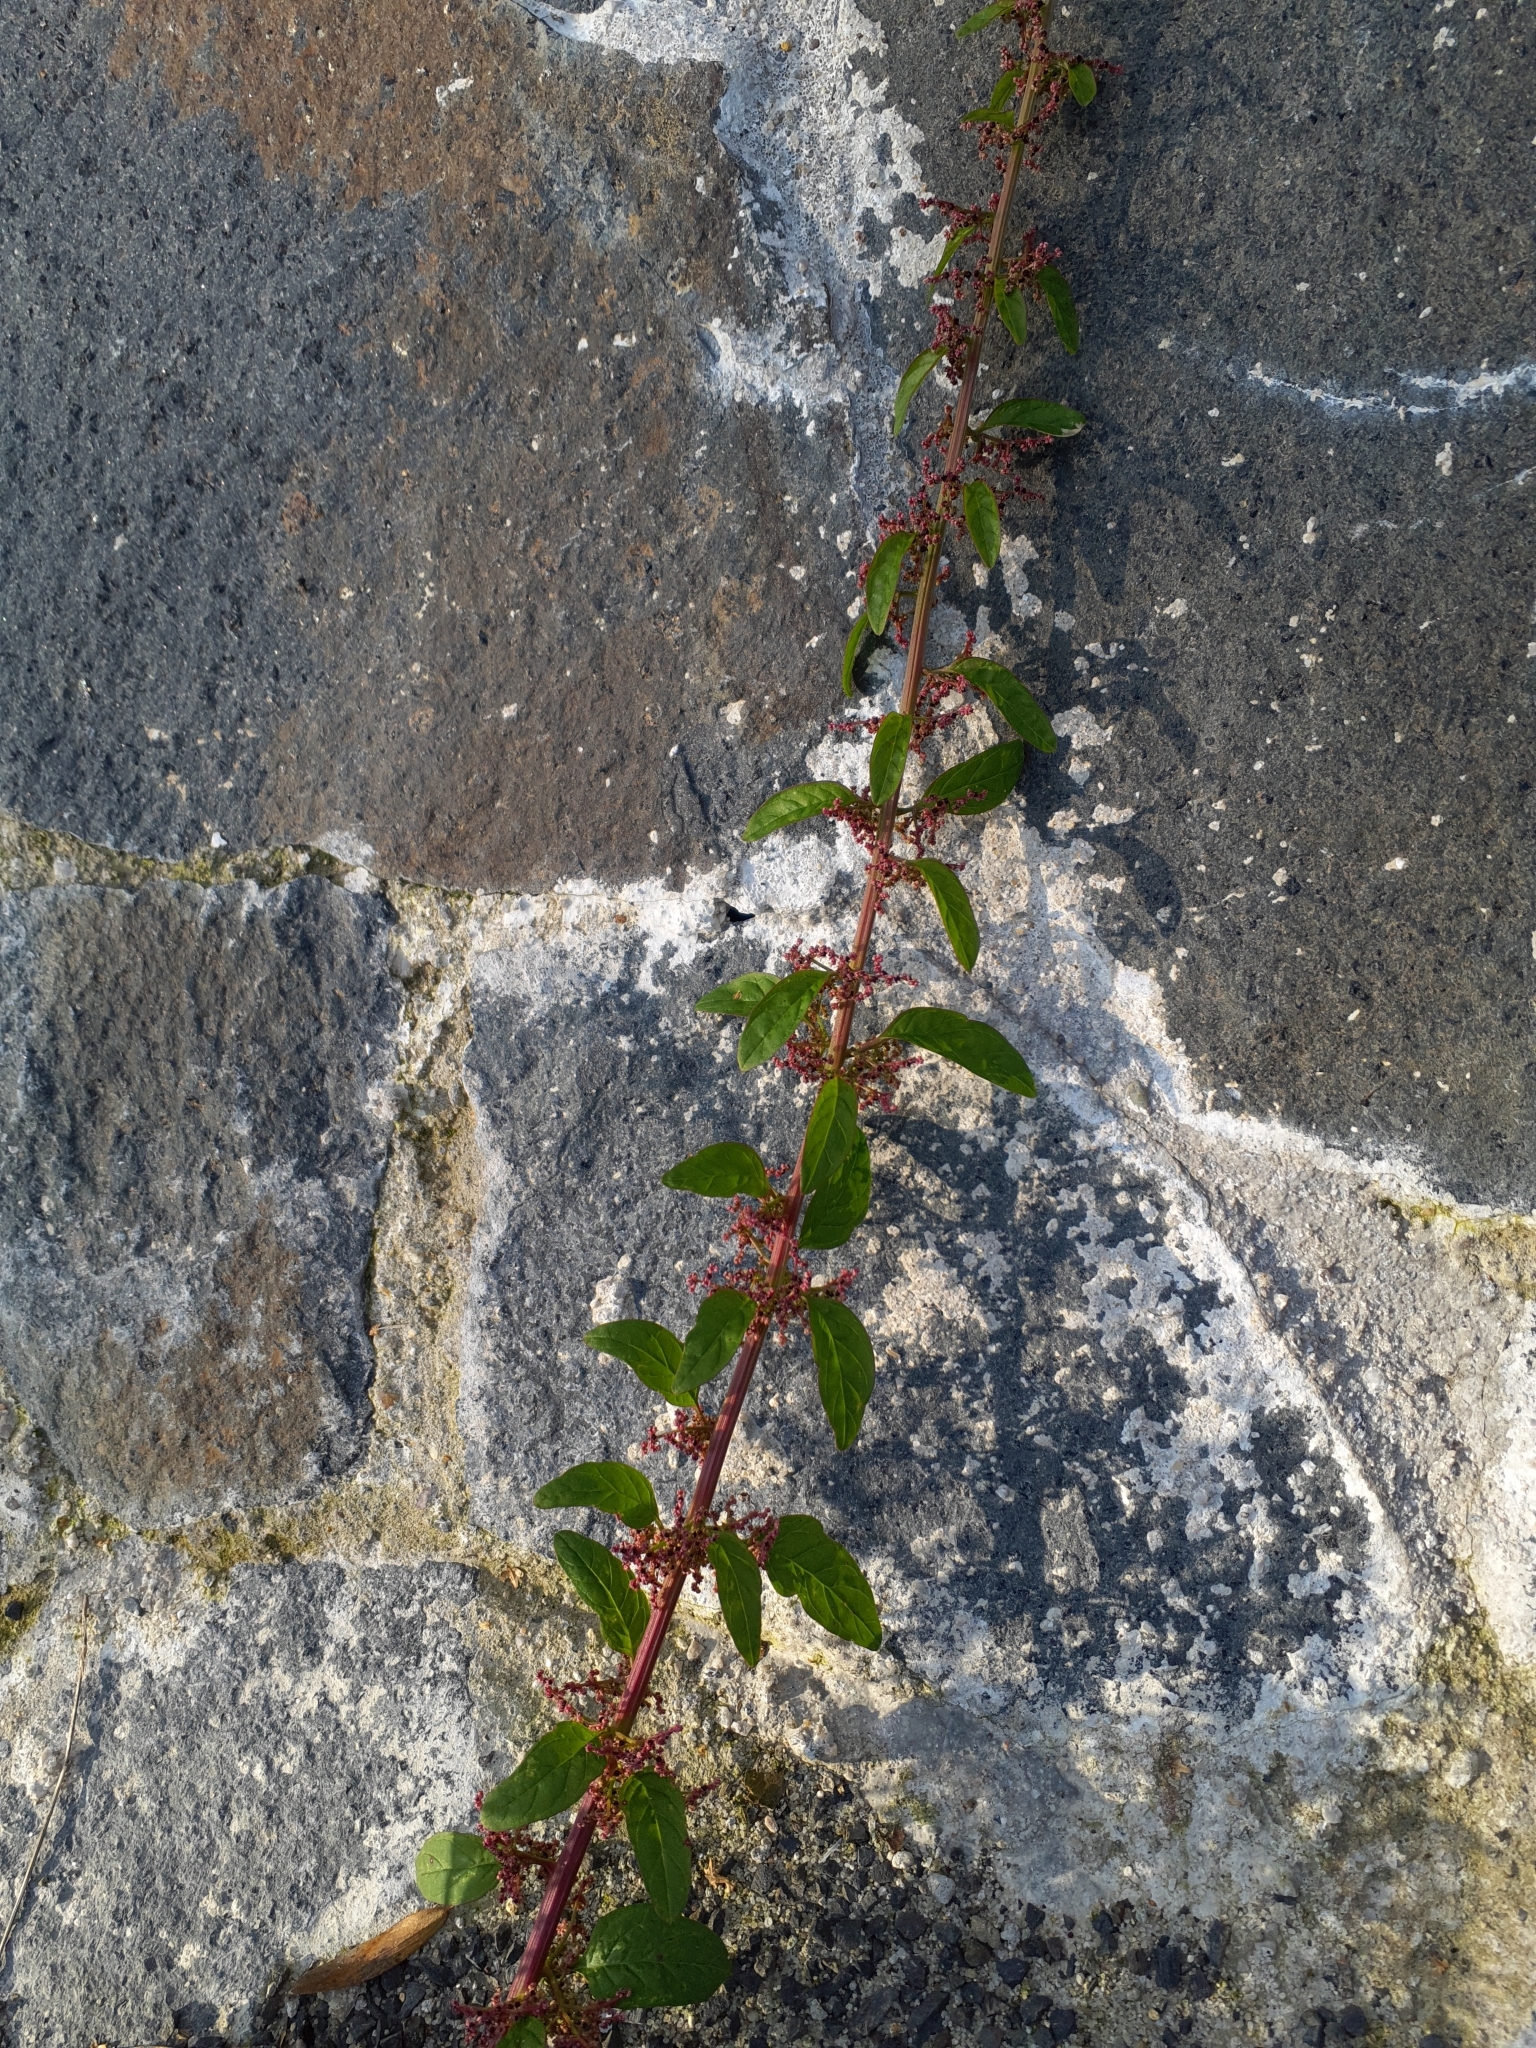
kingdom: Plantae
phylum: Tracheophyta
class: Magnoliopsida
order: Caryophyllales
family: Amaranthaceae
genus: Lipandra
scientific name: Lipandra polysperma
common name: Many-seed goosefoot
